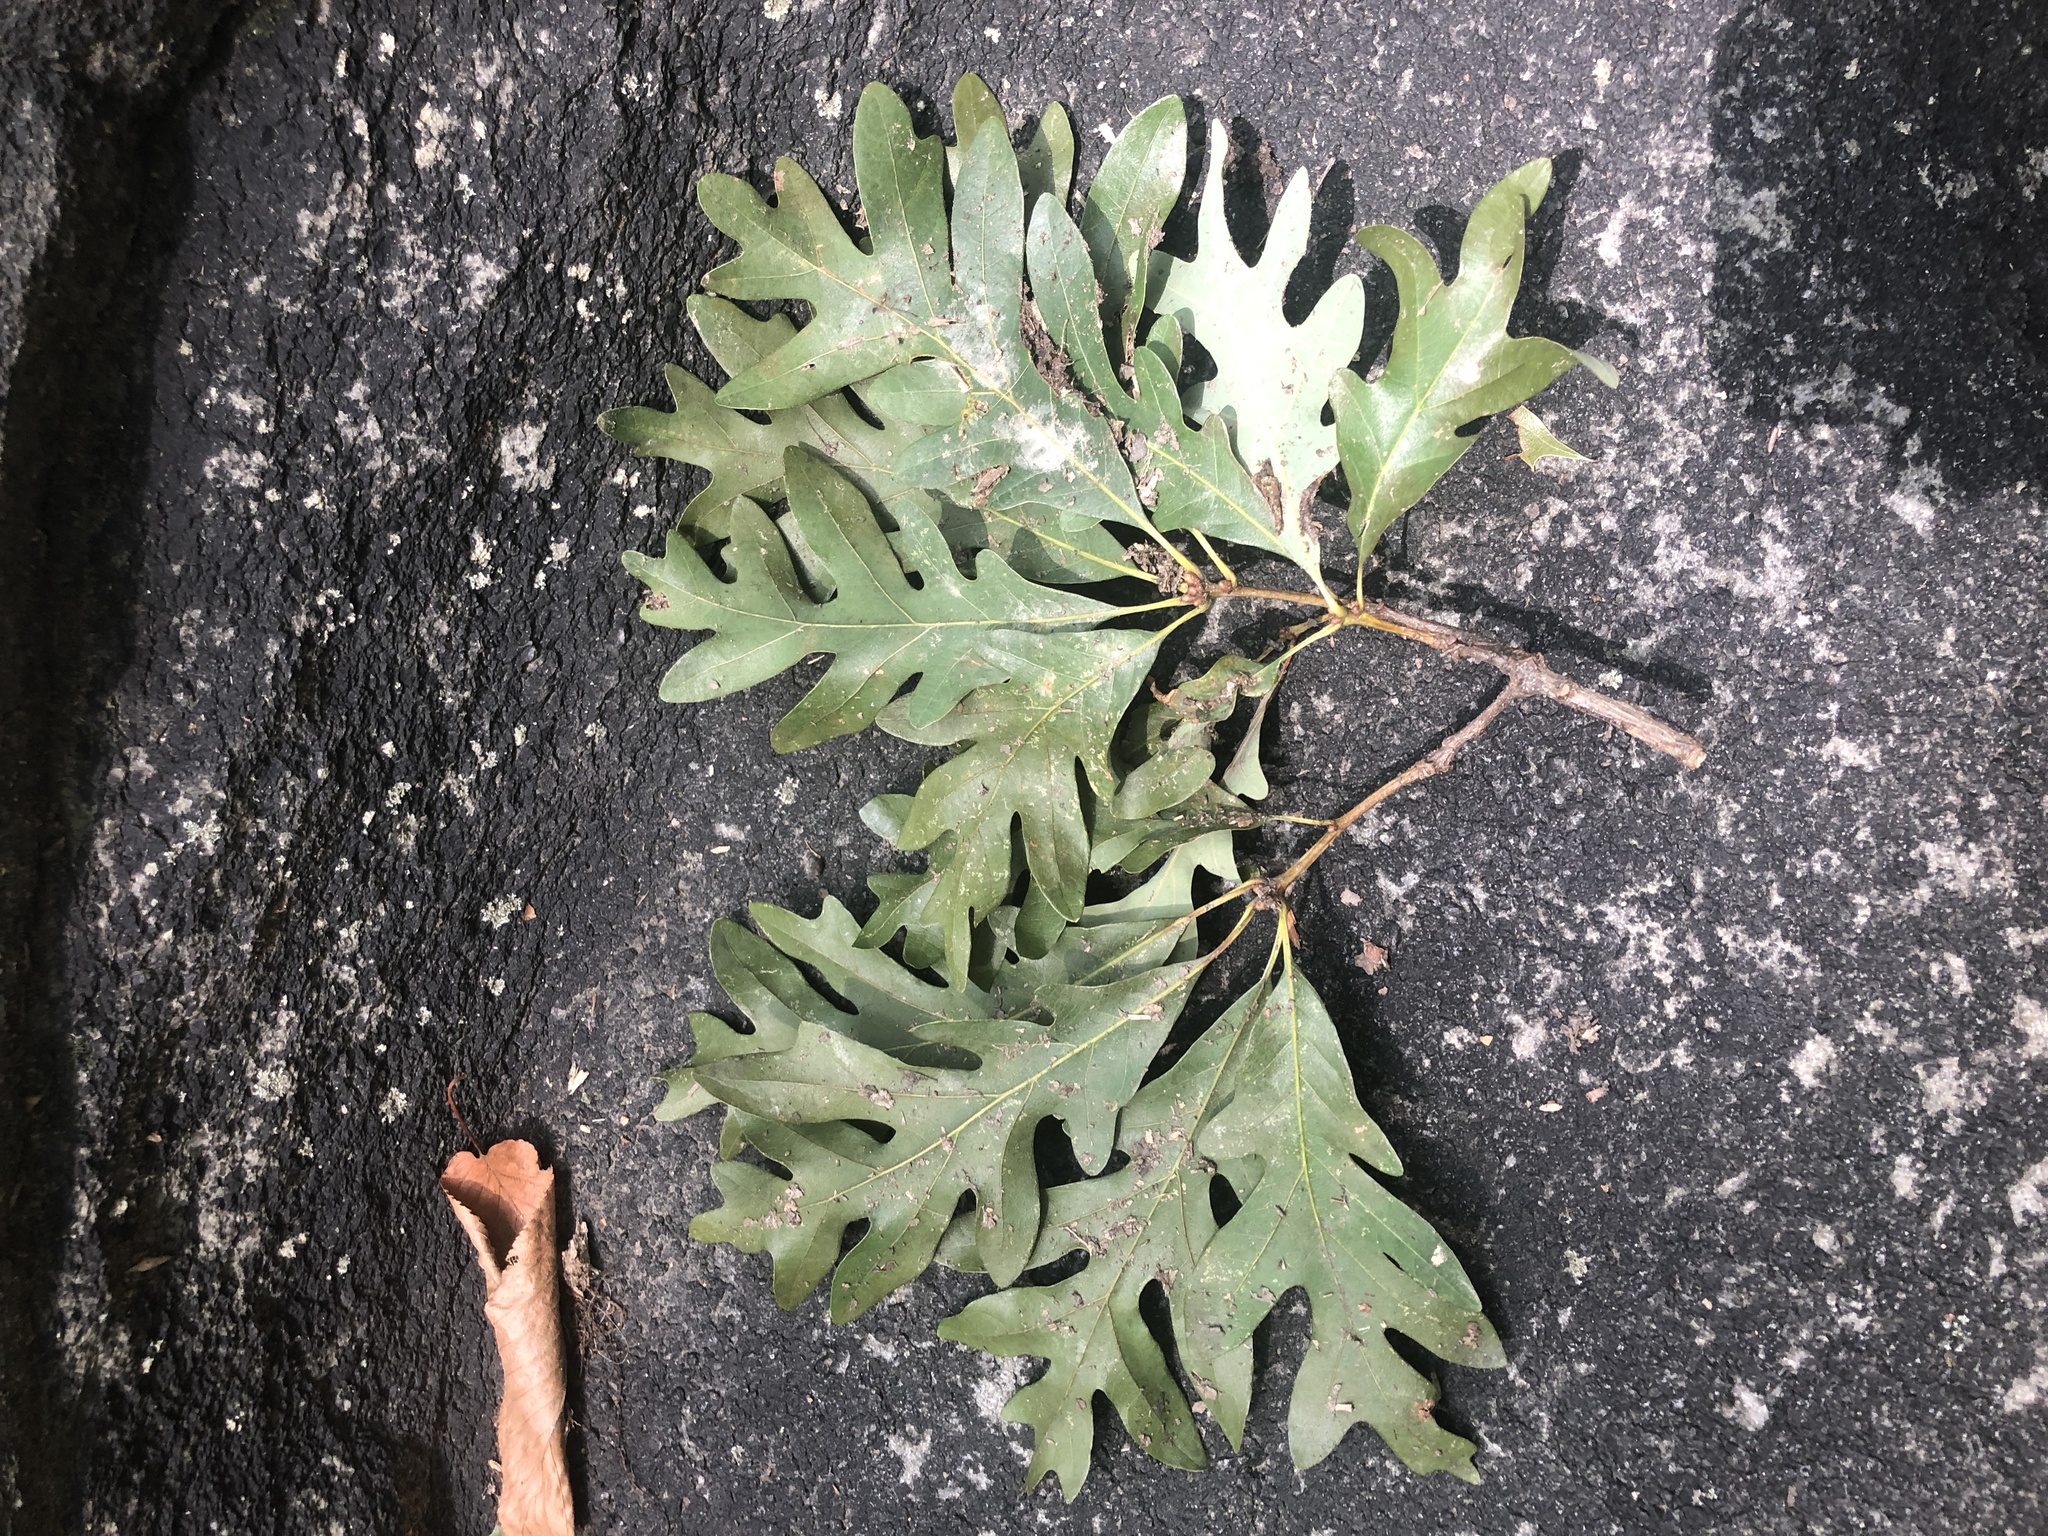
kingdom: Plantae
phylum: Tracheophyta
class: Magnoliopsida
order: Fagales
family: Fagaceae
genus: Quercus
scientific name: Quercus alba
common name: White oak
